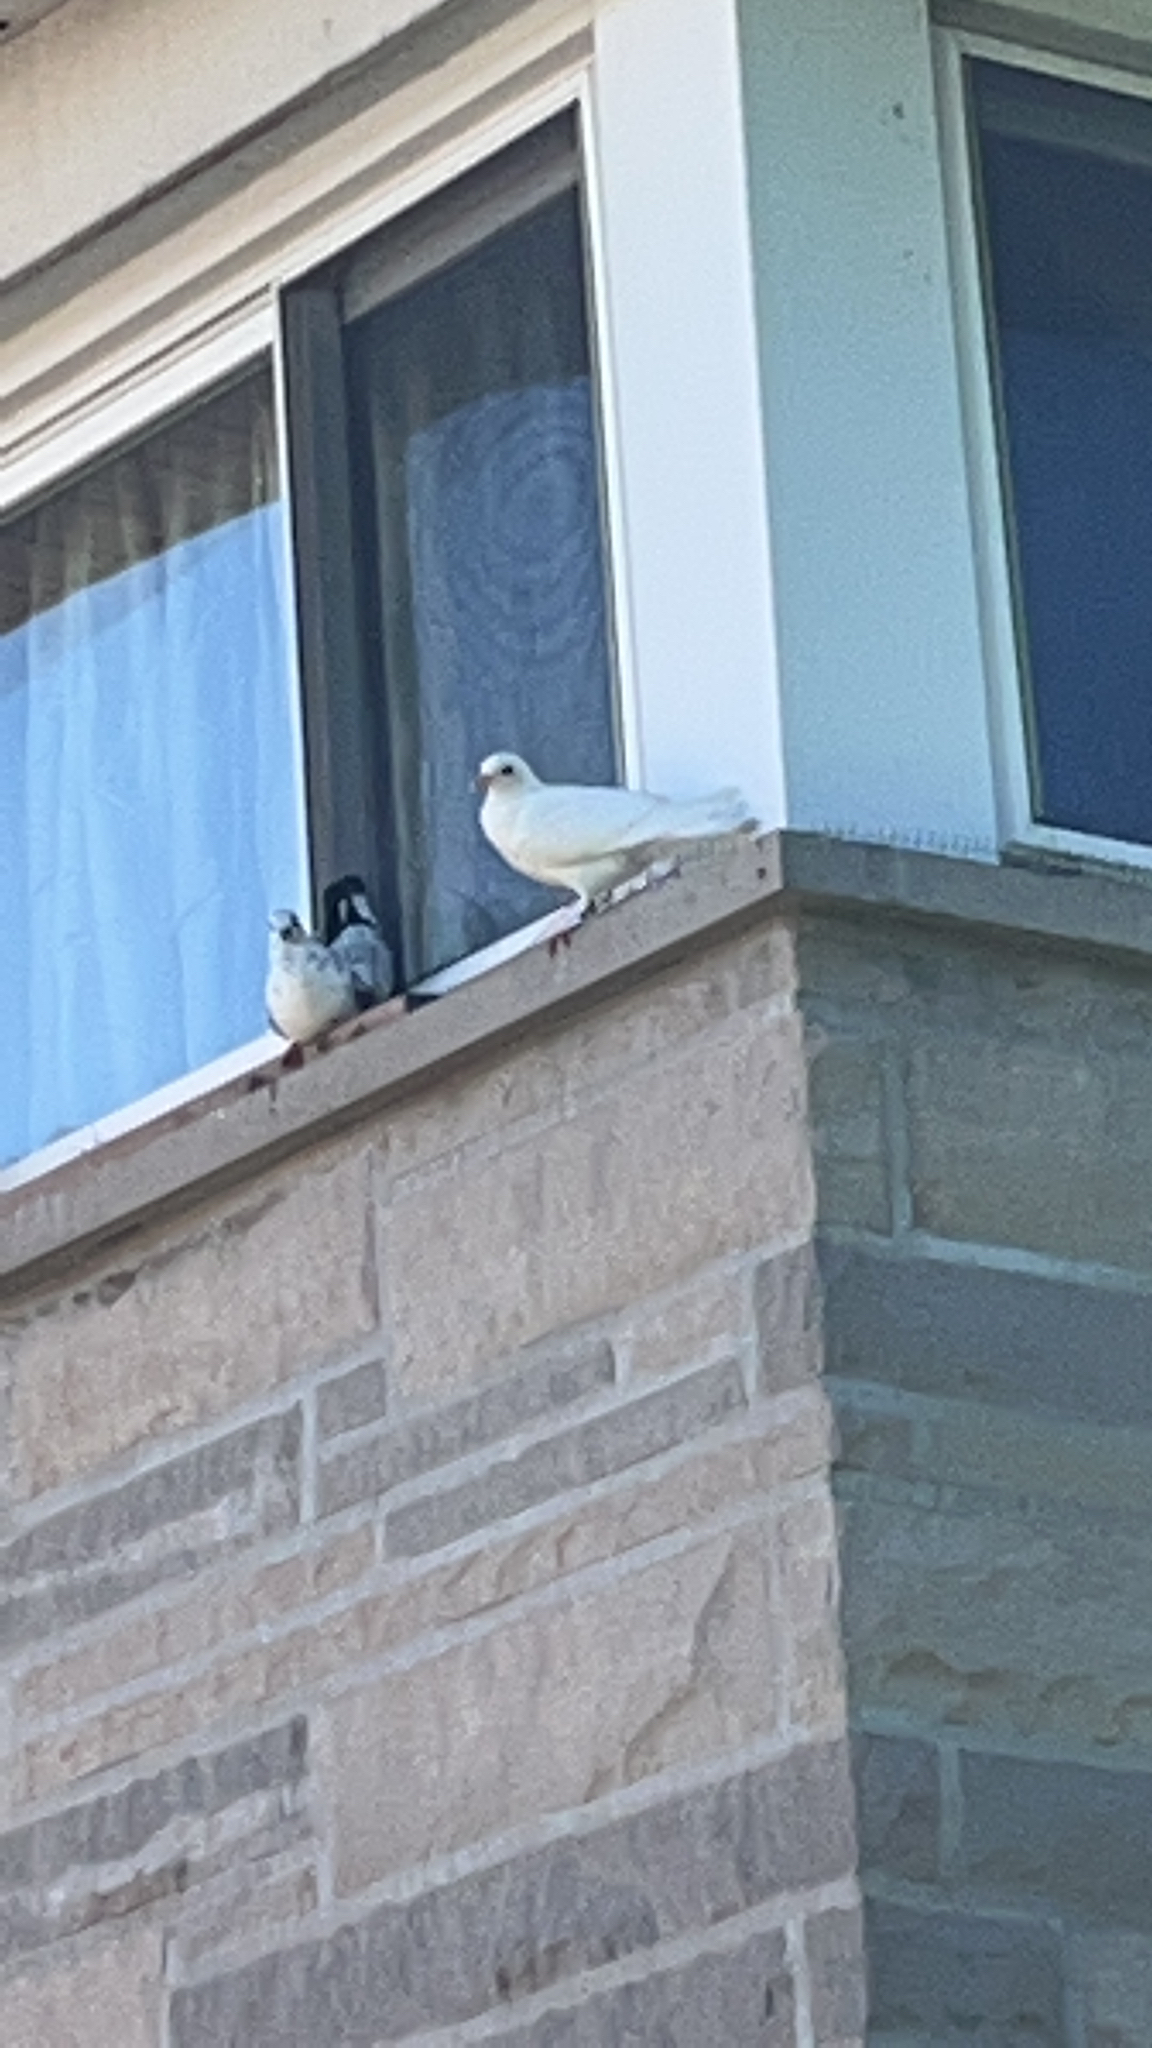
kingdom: Animalia
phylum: Chordata
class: Aves
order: Columbiformes
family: Columbidae
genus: Columba
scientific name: Columba livia
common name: Rock pigeon
